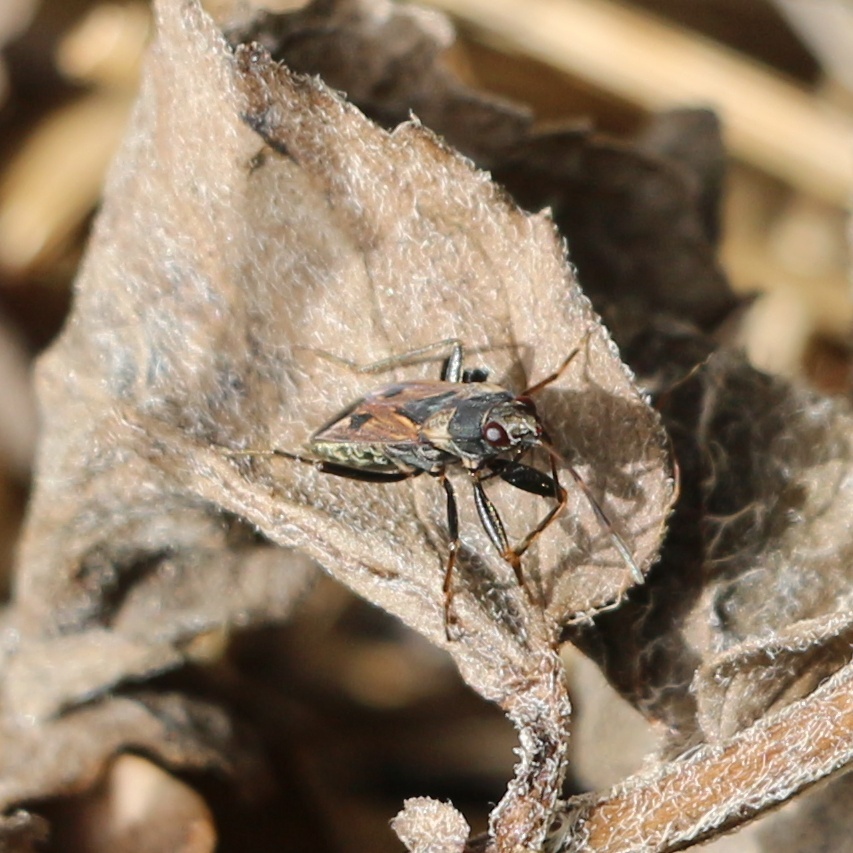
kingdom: Animalia
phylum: Arthropoda
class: Insecta
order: Hemiptera
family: Rhyparochromidae
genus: Rhyparochromus
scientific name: Rhyparochromus vulgaris
